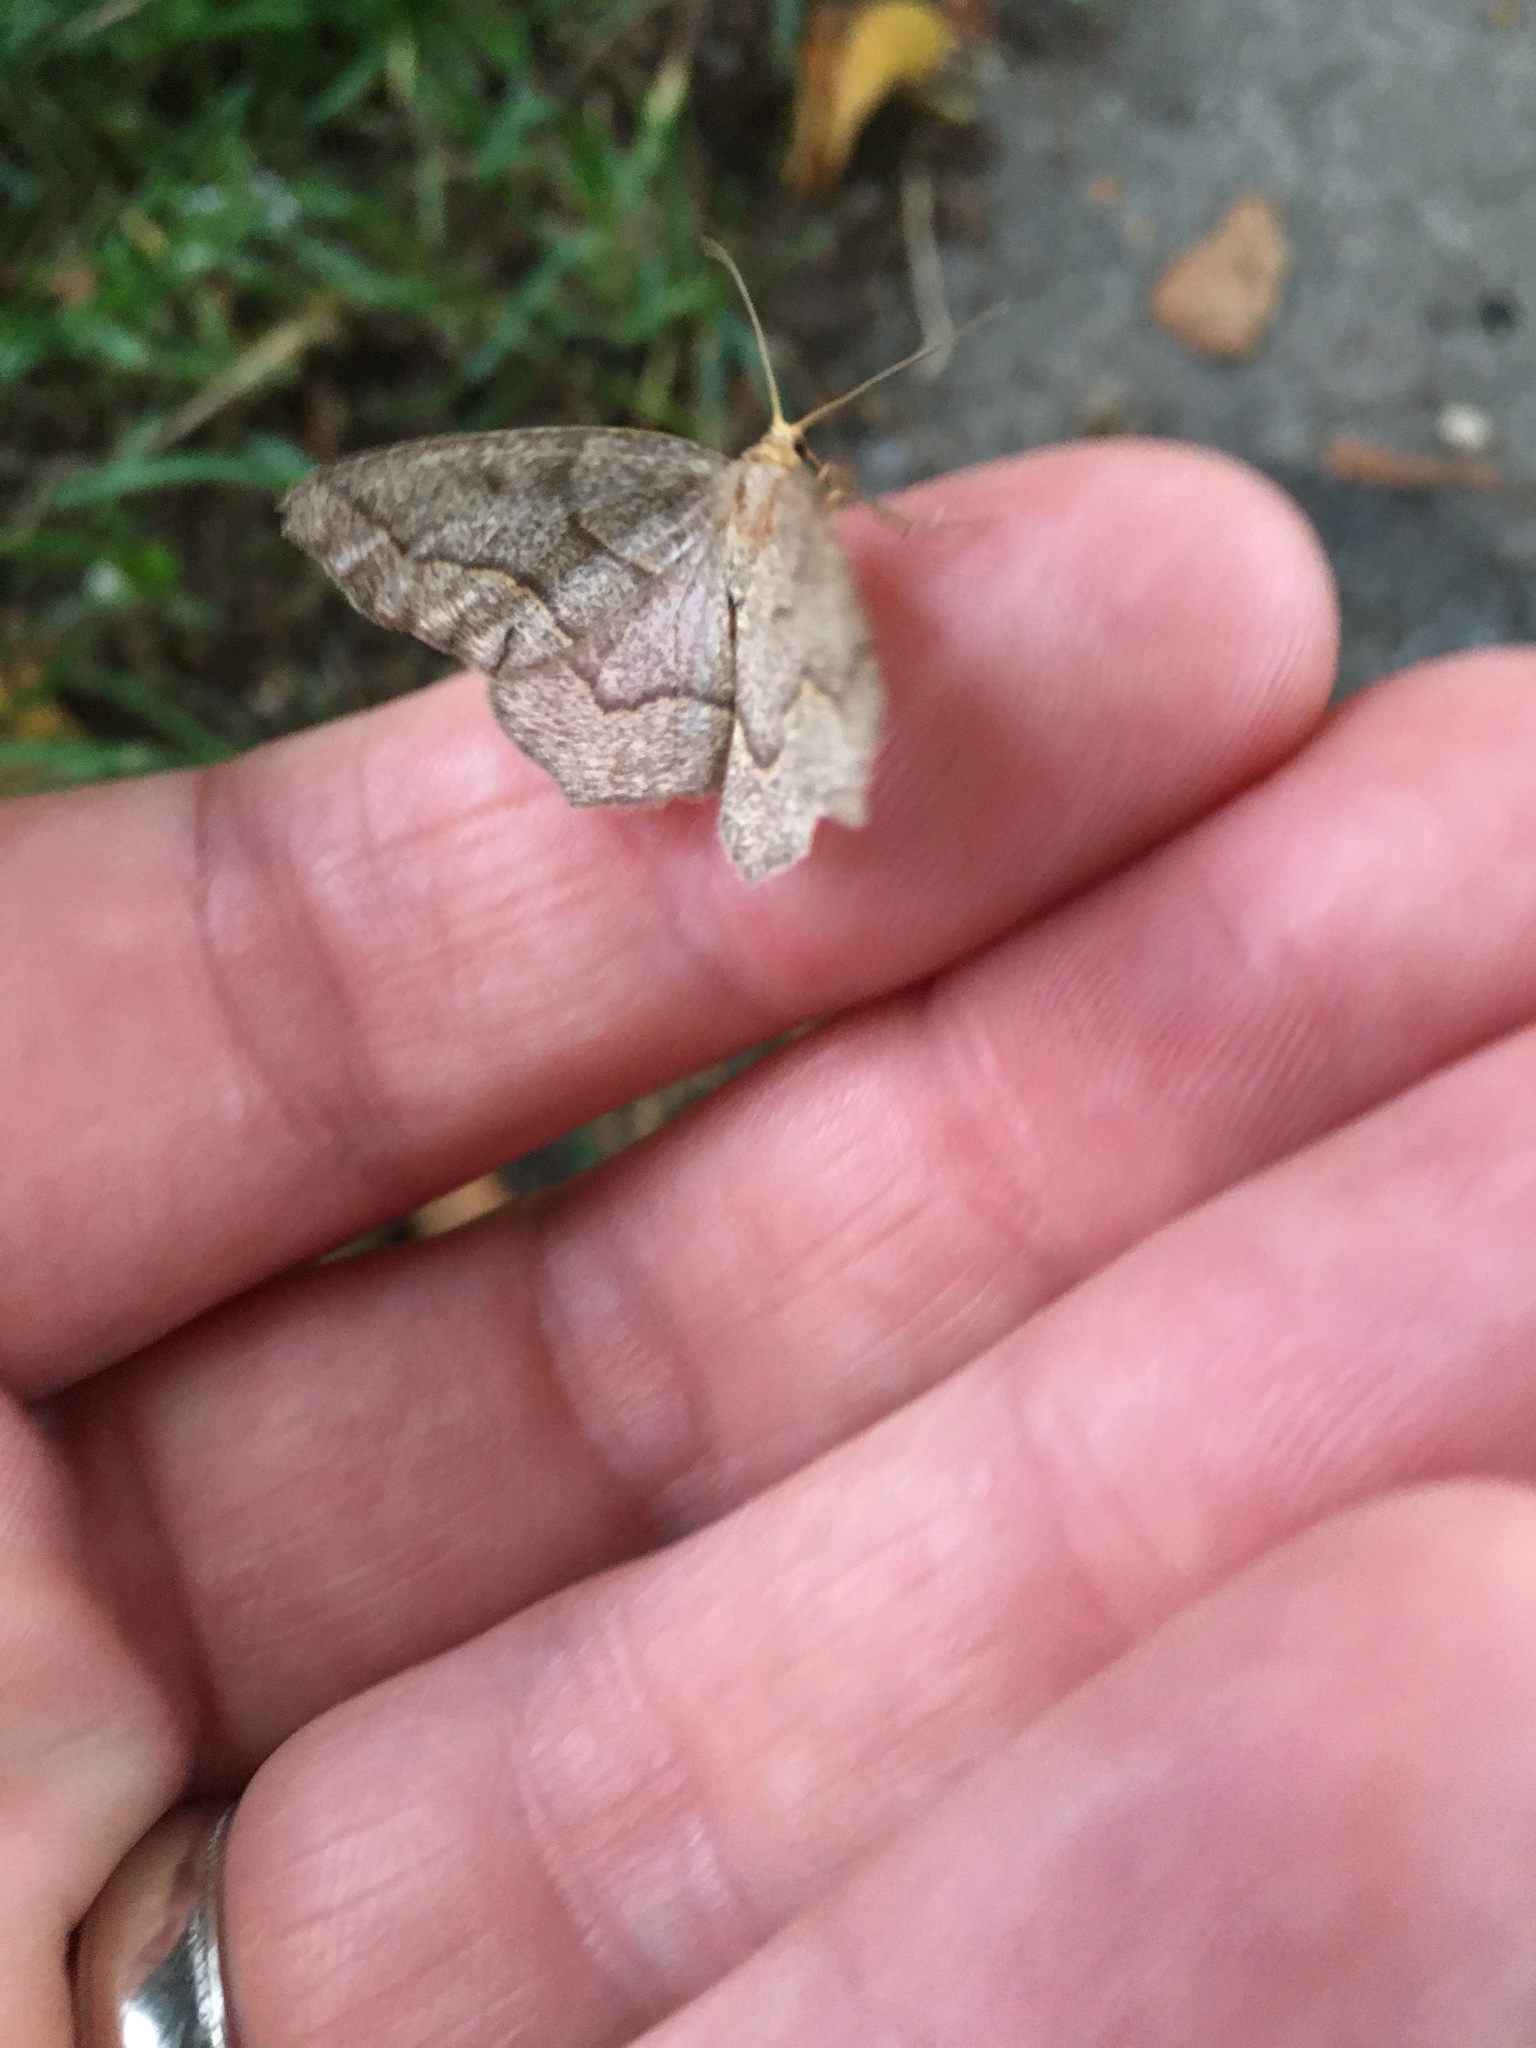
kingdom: Animalia
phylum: Arthropoda
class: Insecta
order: Lepidoptera
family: Geometridae
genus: Lambdina
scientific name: Lambdina fiscellaria
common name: Hemlock looper
